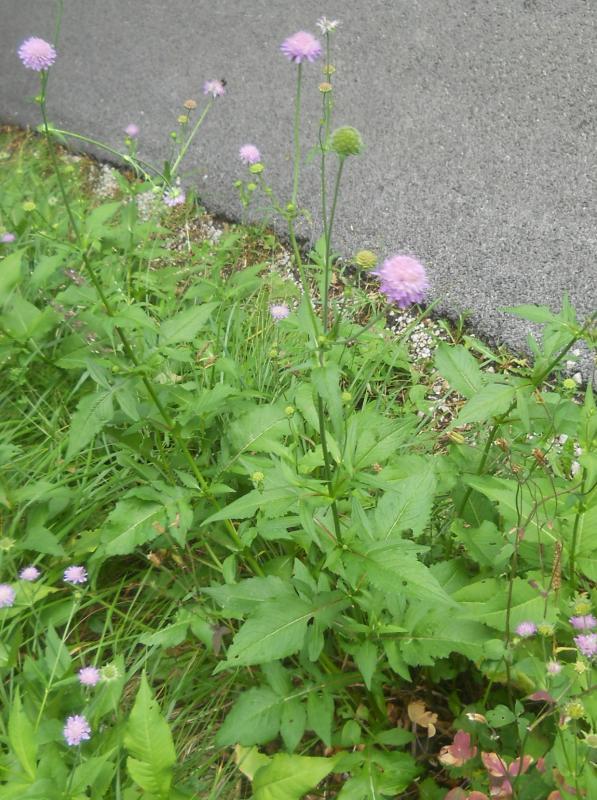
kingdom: Plantae
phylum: Tracheophyta
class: Magnoliopsida
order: Dipsacales
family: Caprifoliaceae
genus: Knautia
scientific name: Knautia arvensis
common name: Field scabiosa
